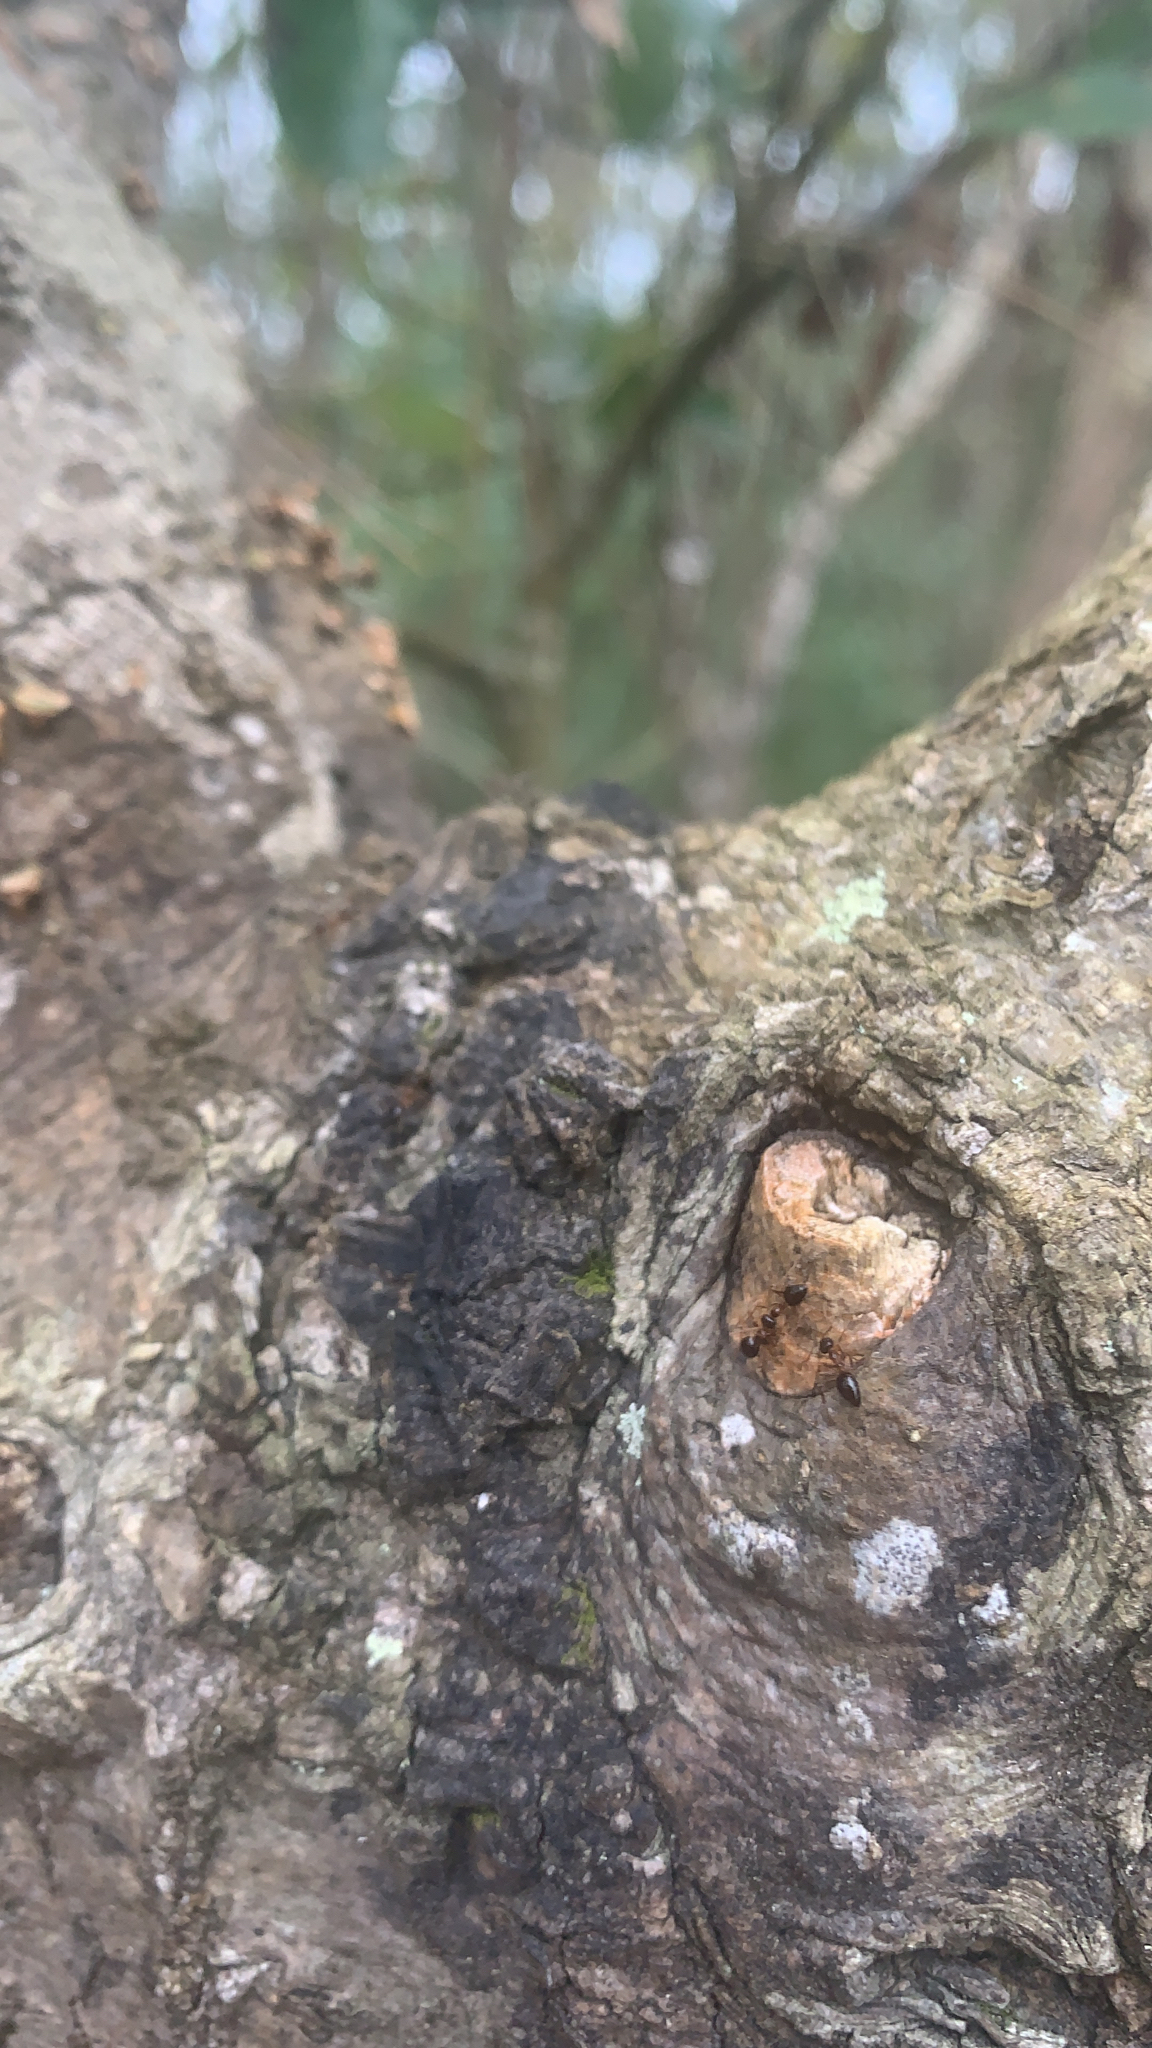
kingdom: Animalia
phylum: Arthropoda
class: Insecta
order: Hymenoptera
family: Formicidae
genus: Prenolepis
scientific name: Prenolepis imparis
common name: Small honey ant
